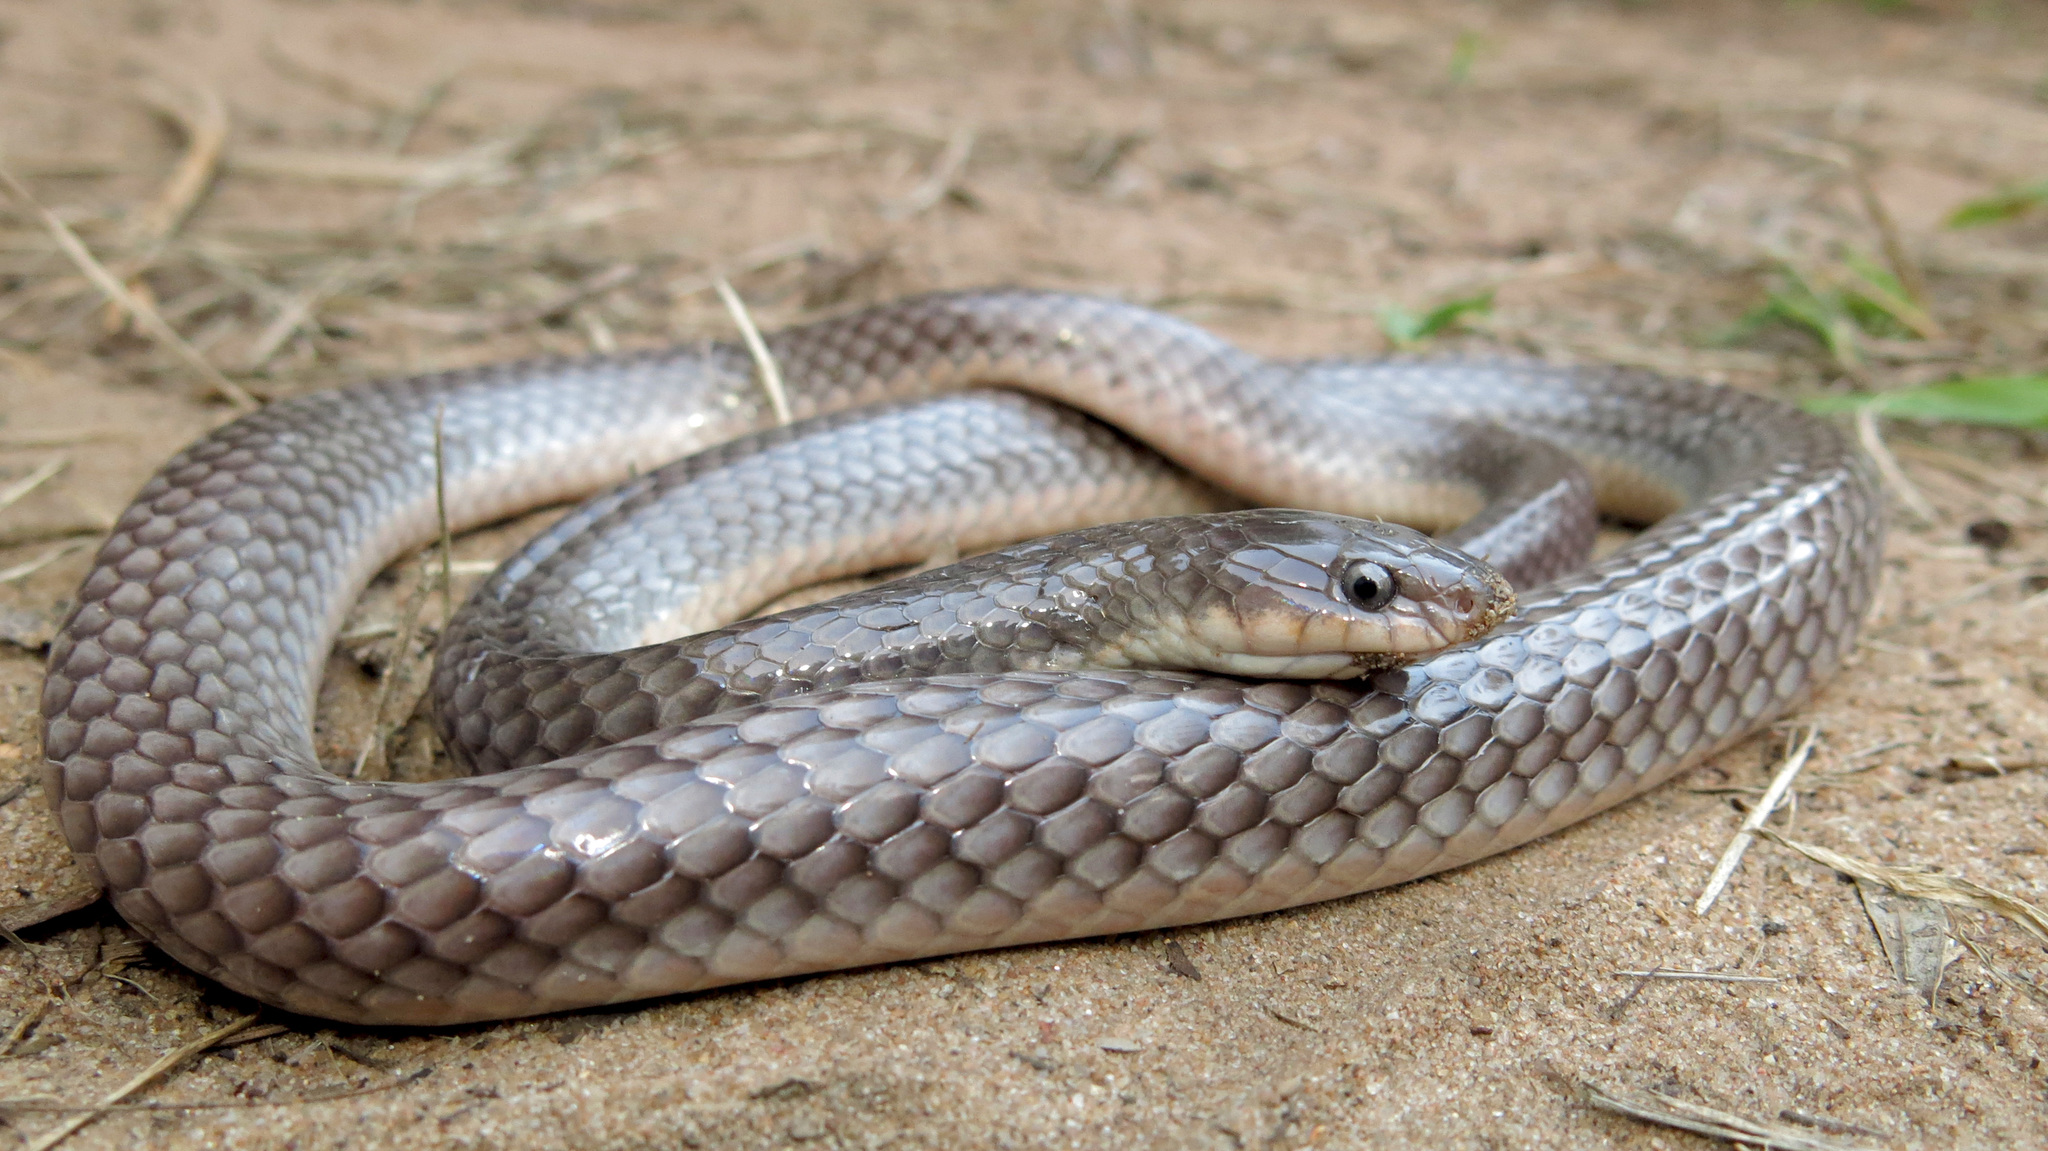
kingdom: Animalia
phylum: Chordata
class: Squamata
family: Elapidae
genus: Elapsoidea
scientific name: Elapsoidea sundevallii
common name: Sundevall's garter snake
